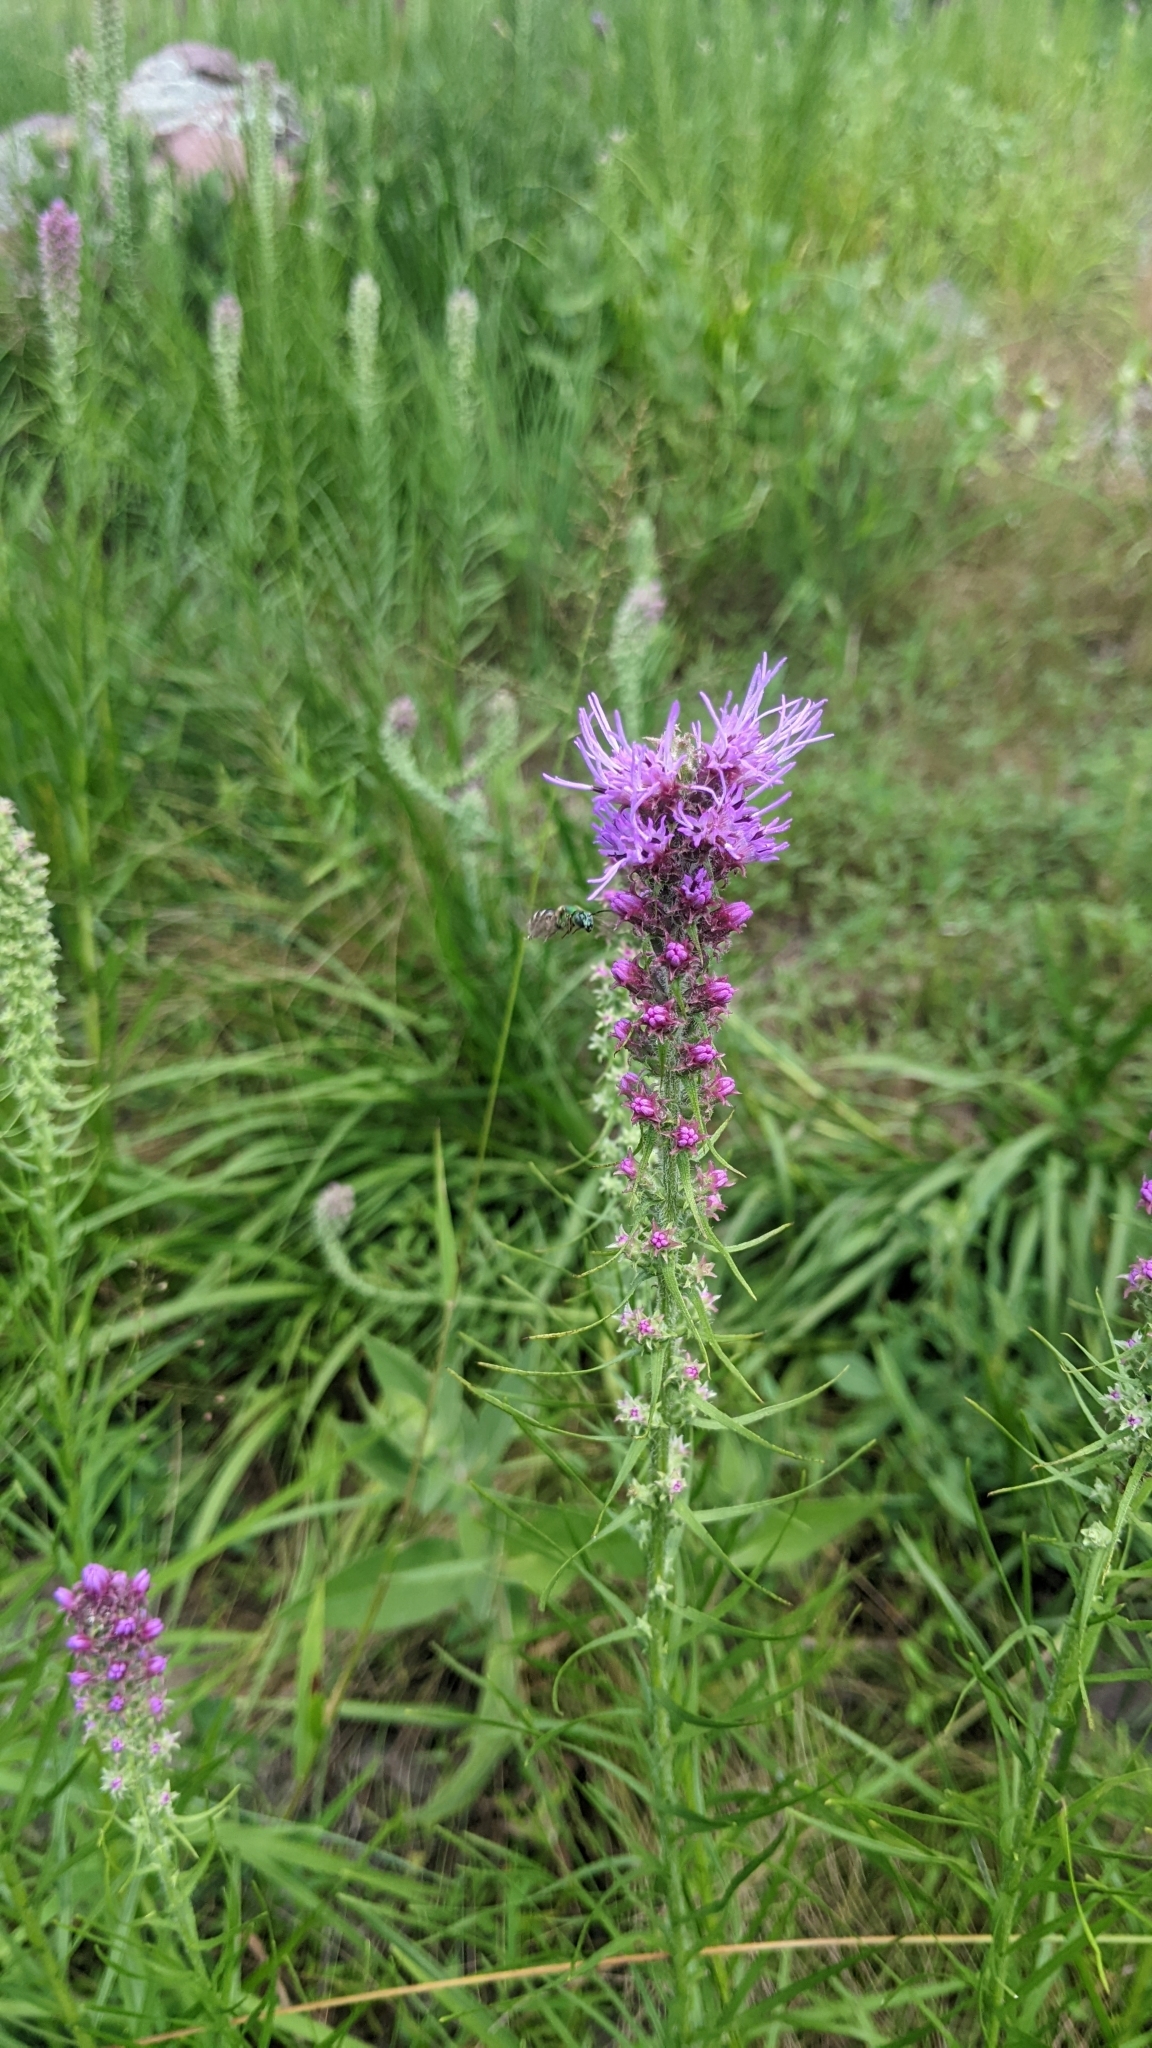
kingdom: Animalia
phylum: Arthropoda
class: Insecta
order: Hymenoptera
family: Halictidae
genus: Agapostemon
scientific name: Agapostemon virescens
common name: Bicolored striped sweat bee
